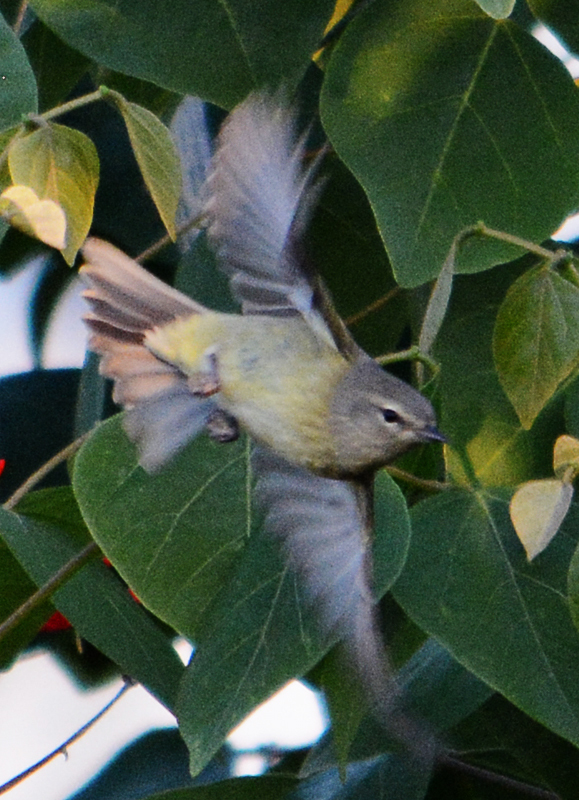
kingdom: Animalia
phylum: Chordata
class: Aves
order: Passeriformes
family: Parulidae
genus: Leiothlypis
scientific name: Leiothlypis celata
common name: Orange-crowned warbler
